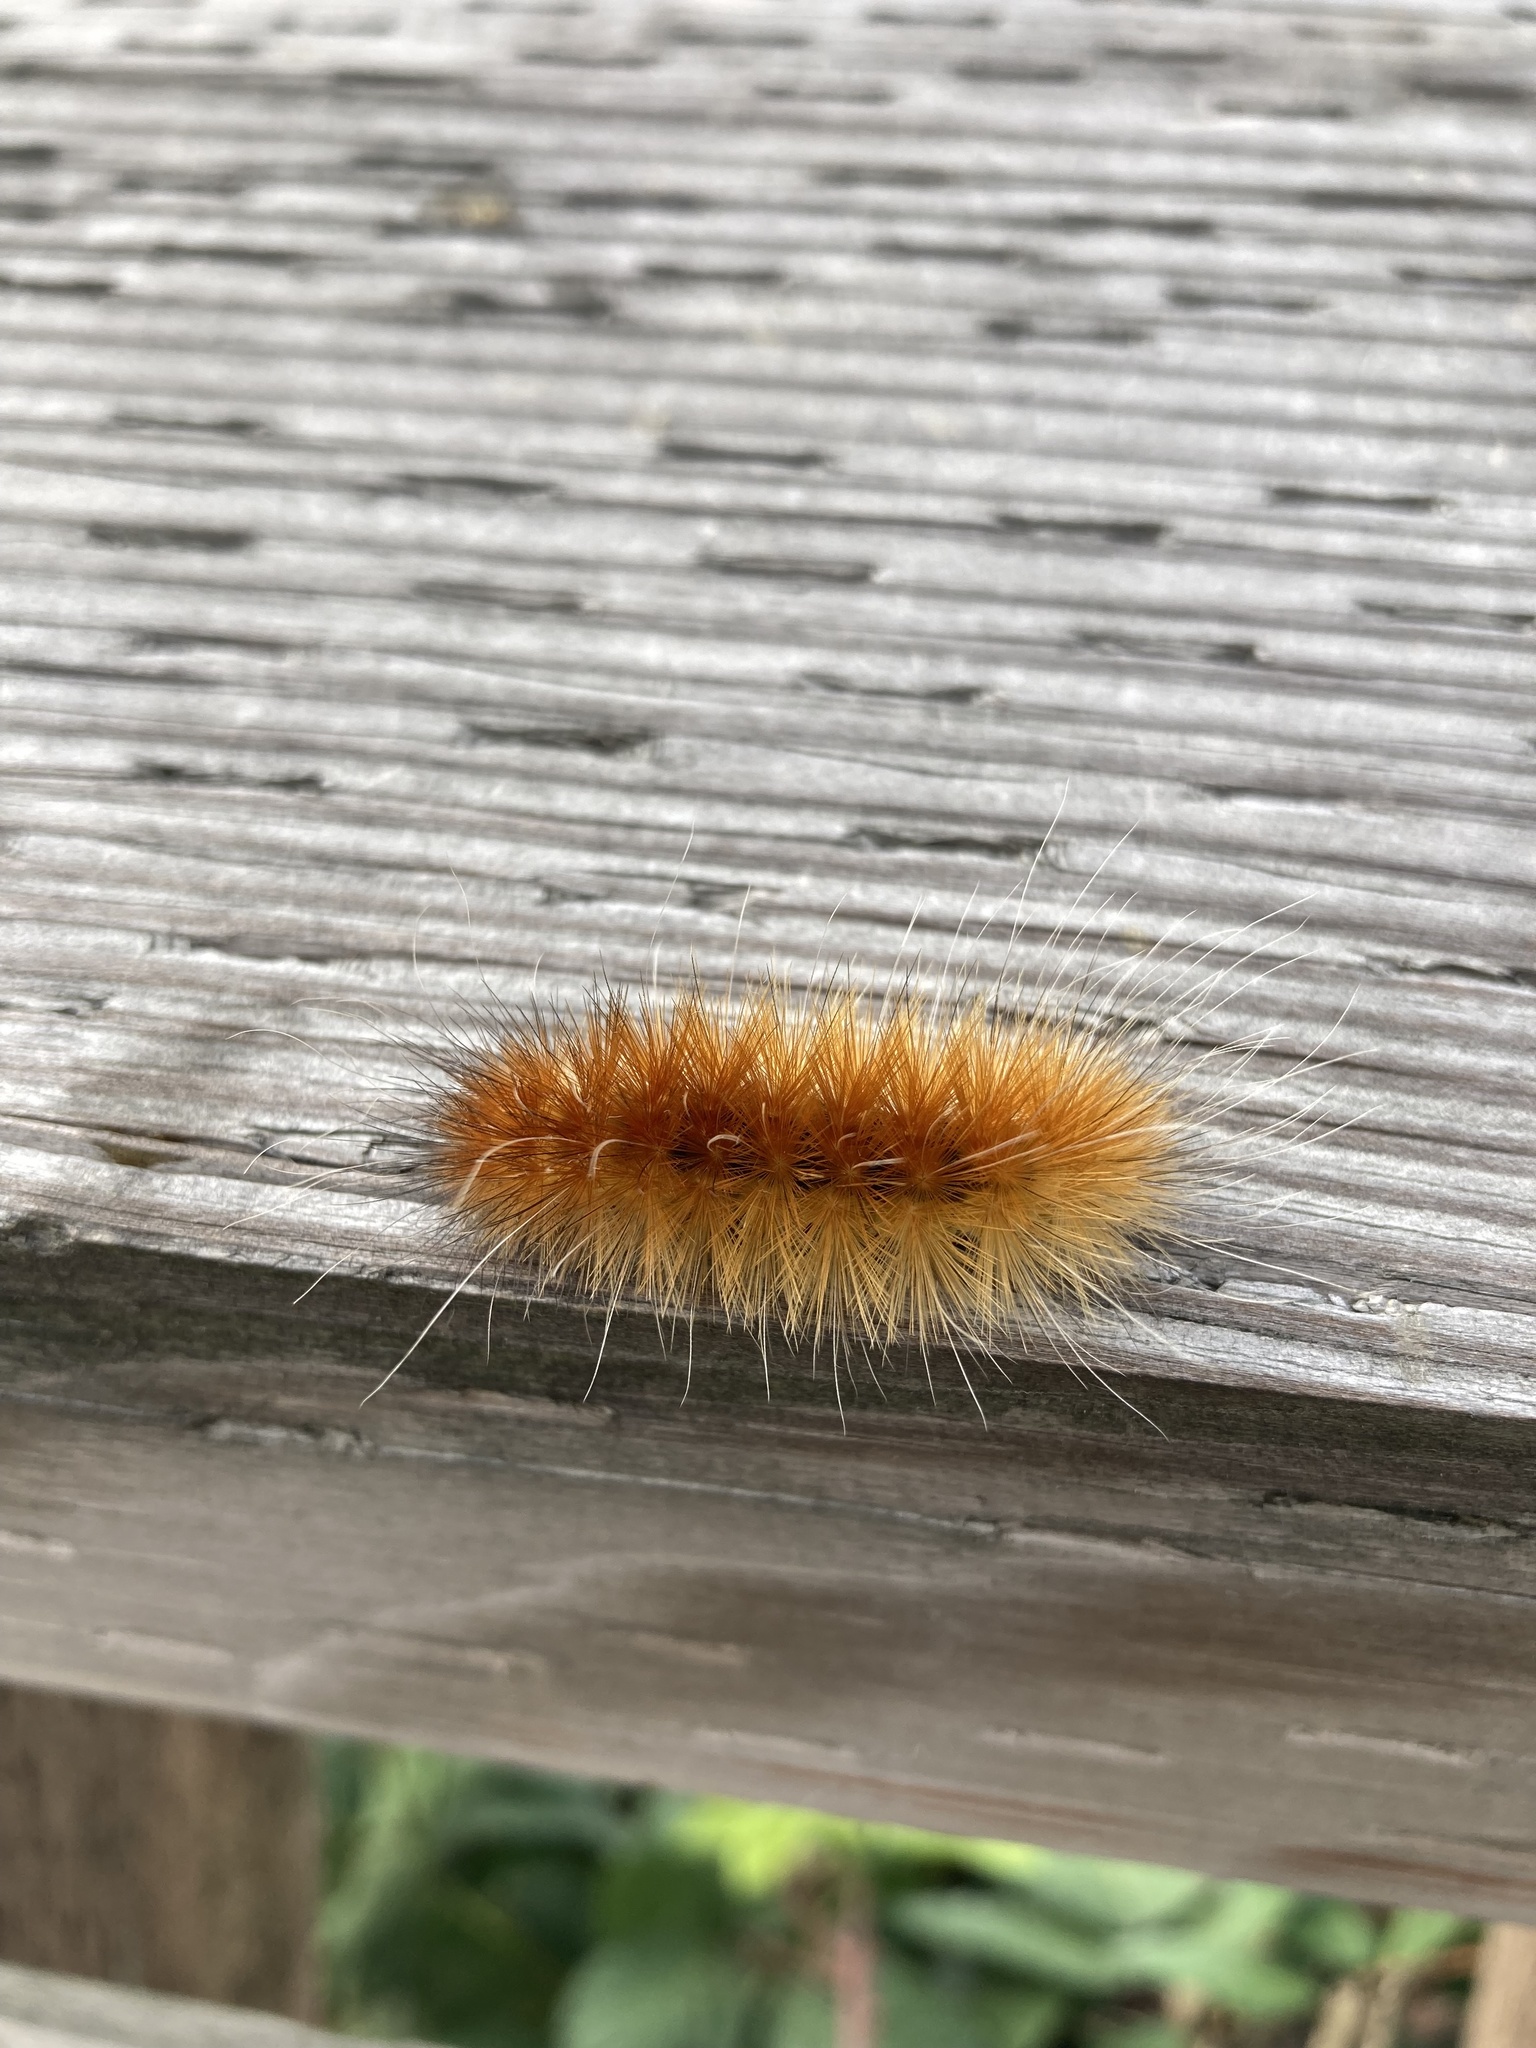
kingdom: Animalia
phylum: Arthropoda
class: Insecta
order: Lepidoptera
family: Erebidae
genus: Spilosoma
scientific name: Spilosoma virginica
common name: Virginia tiger moth
